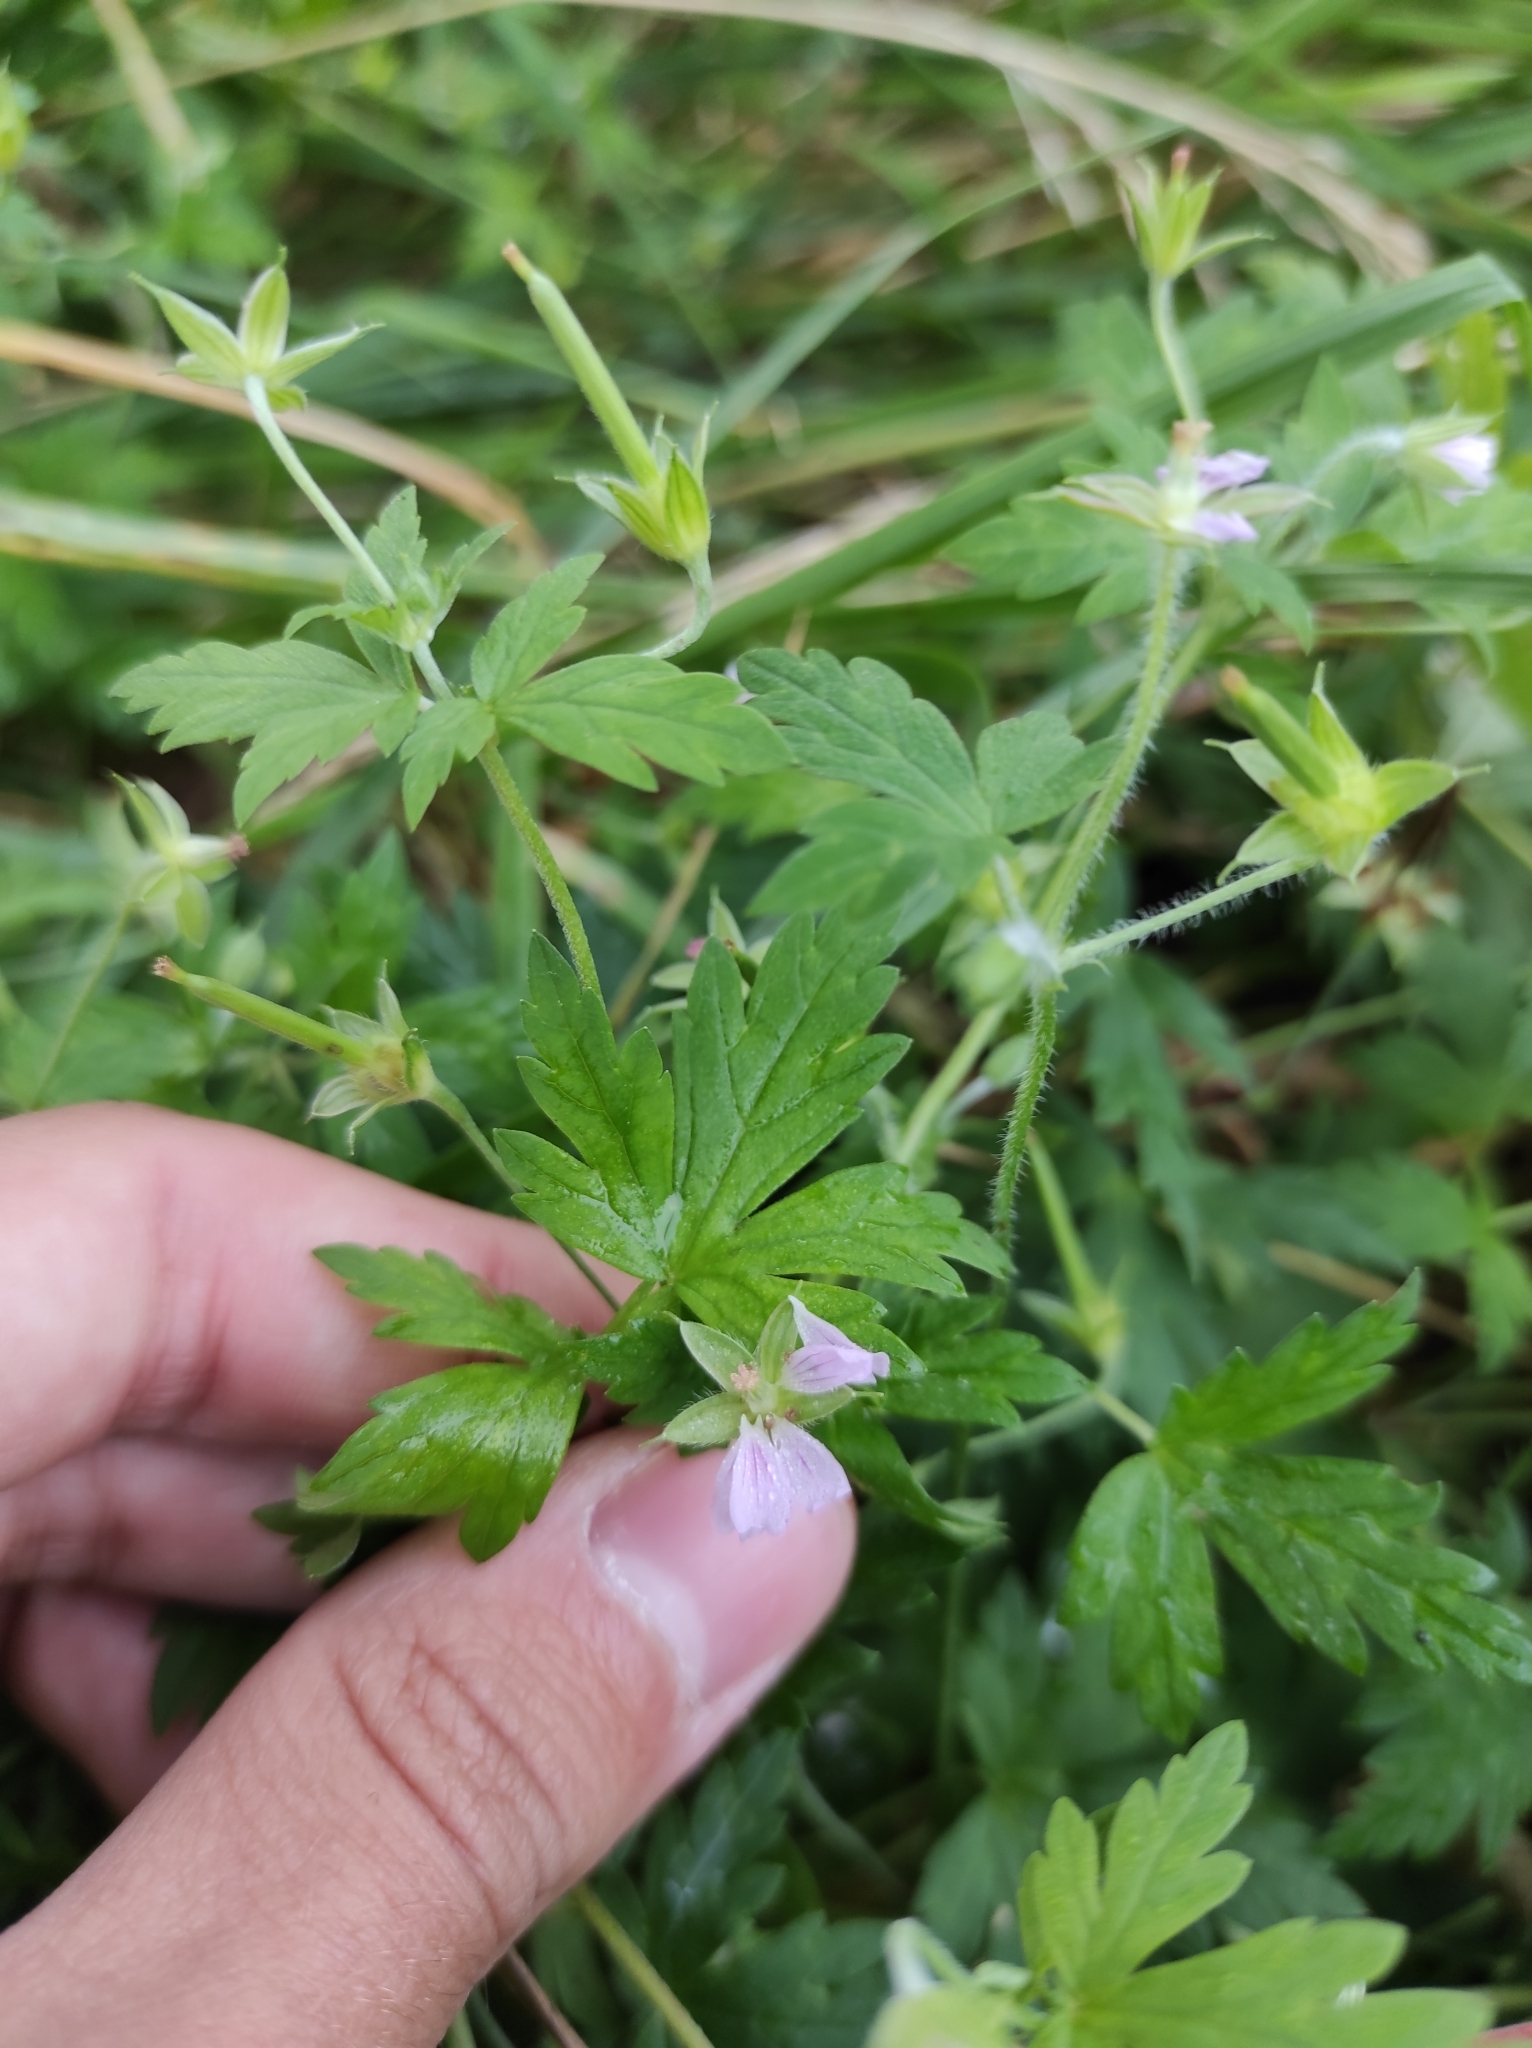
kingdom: Plantae
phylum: Tracheophyta
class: Magnoliopsida
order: Geraniales
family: Geraniaceae
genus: Geranium
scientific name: Geranium sibiricum
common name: Siberian crane's-bill
